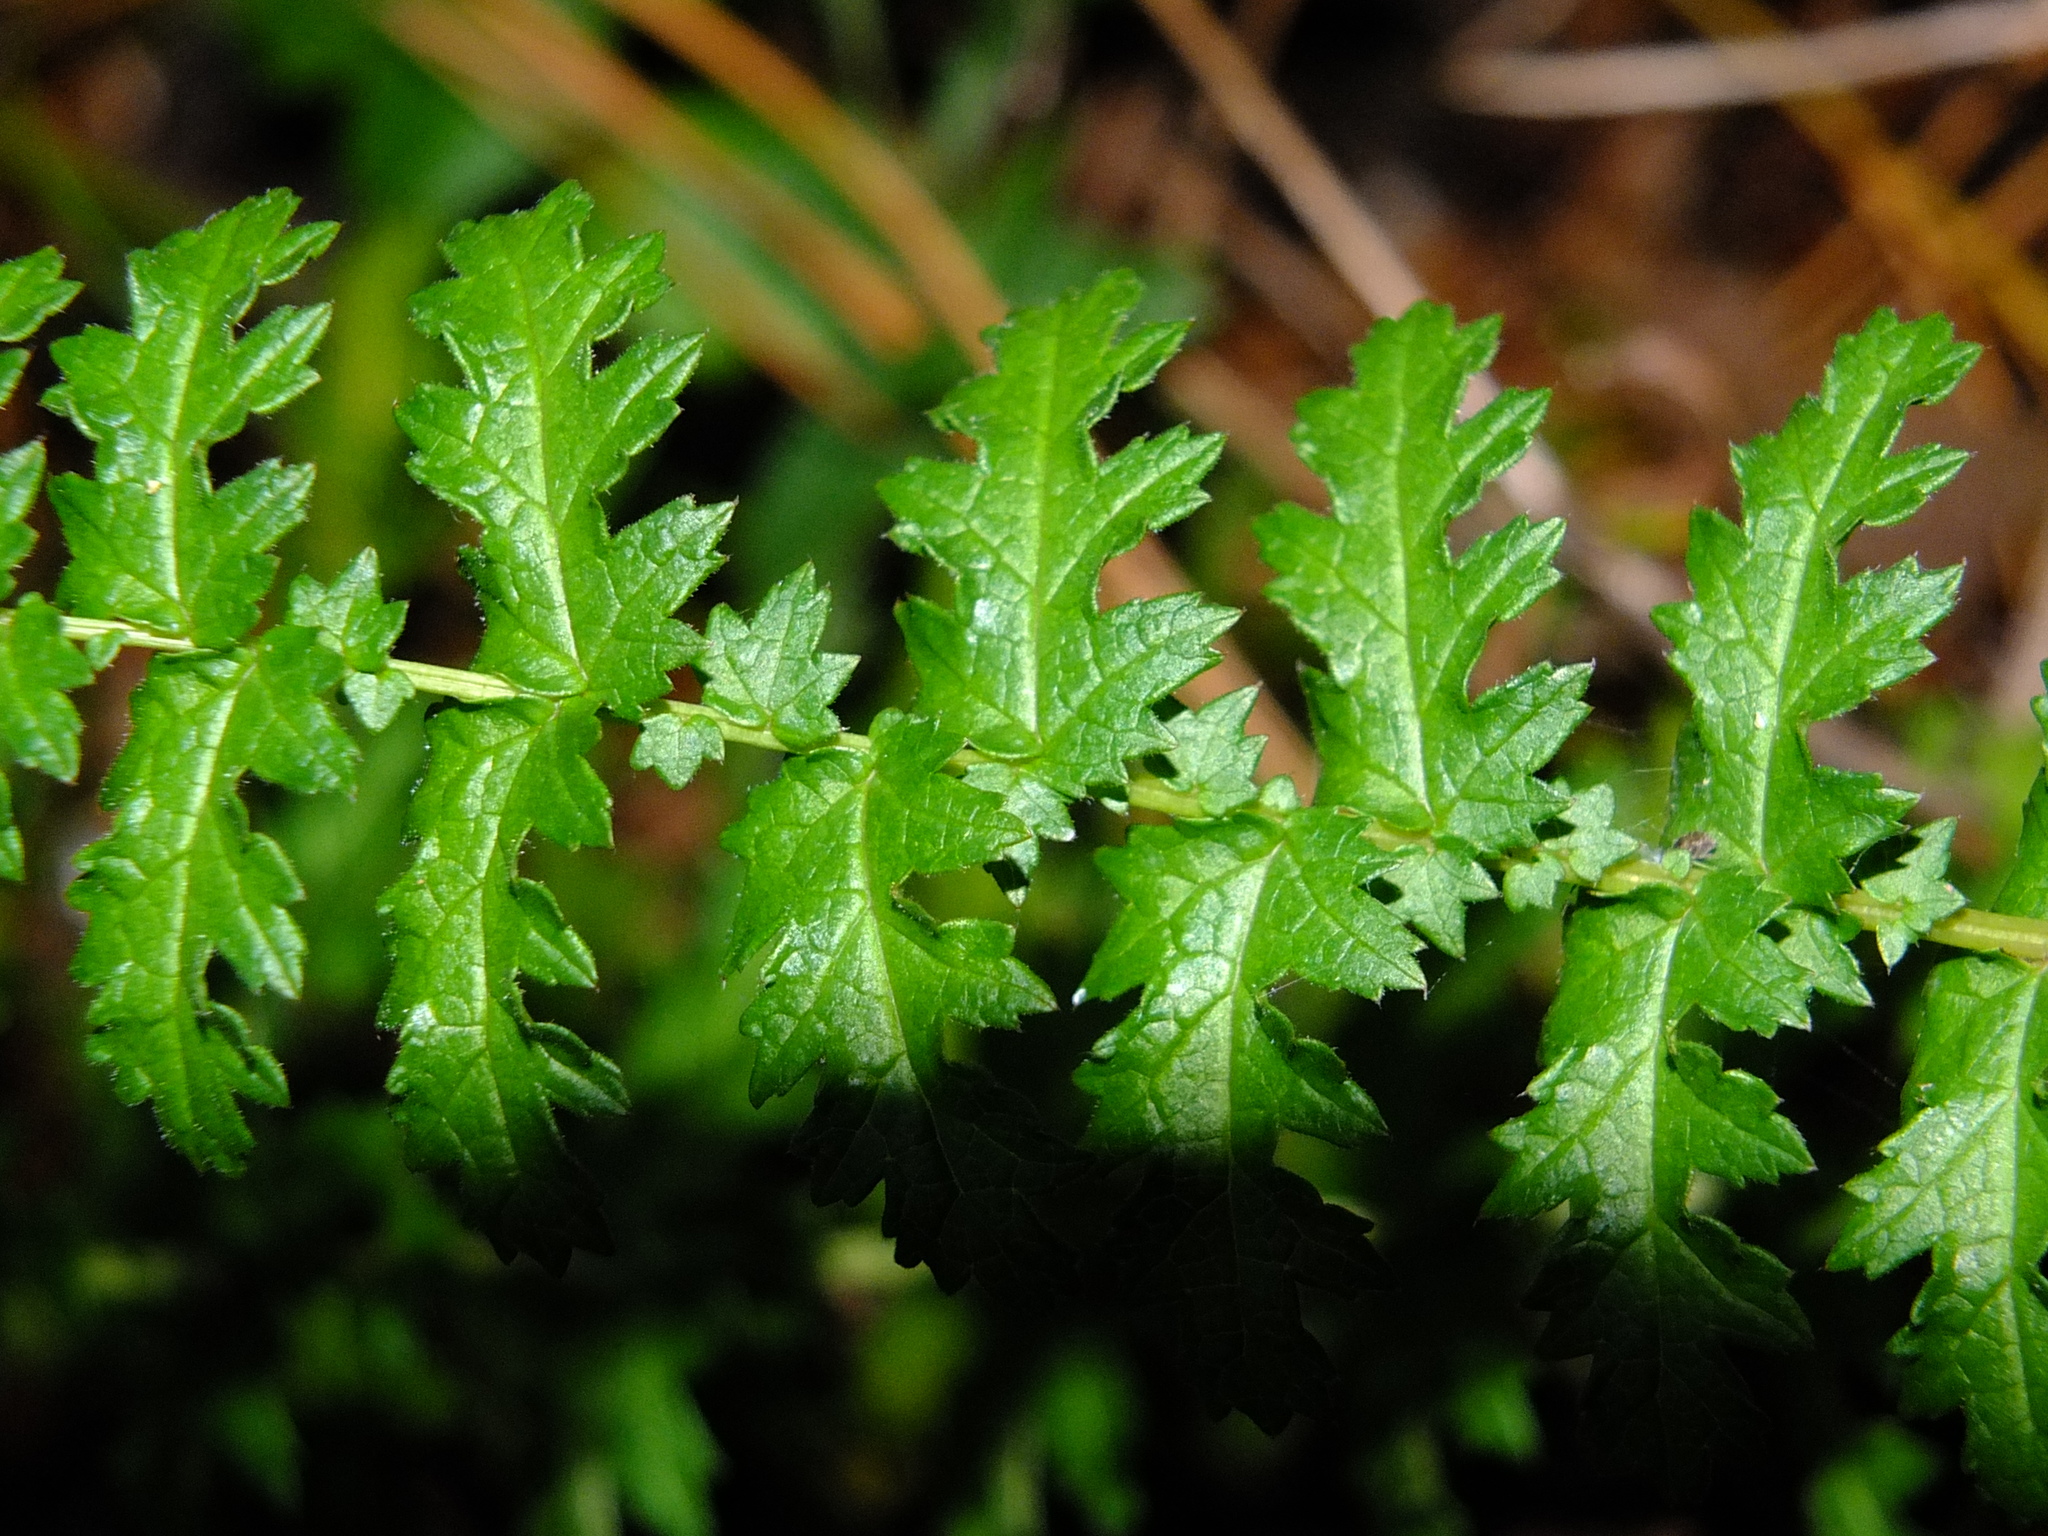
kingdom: Plantae
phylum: Tracheophyta
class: Magnoliopsida
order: Rosales
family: Rosaceae
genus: Filipendula
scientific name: Filipendula vulgaris
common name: Dropwort
